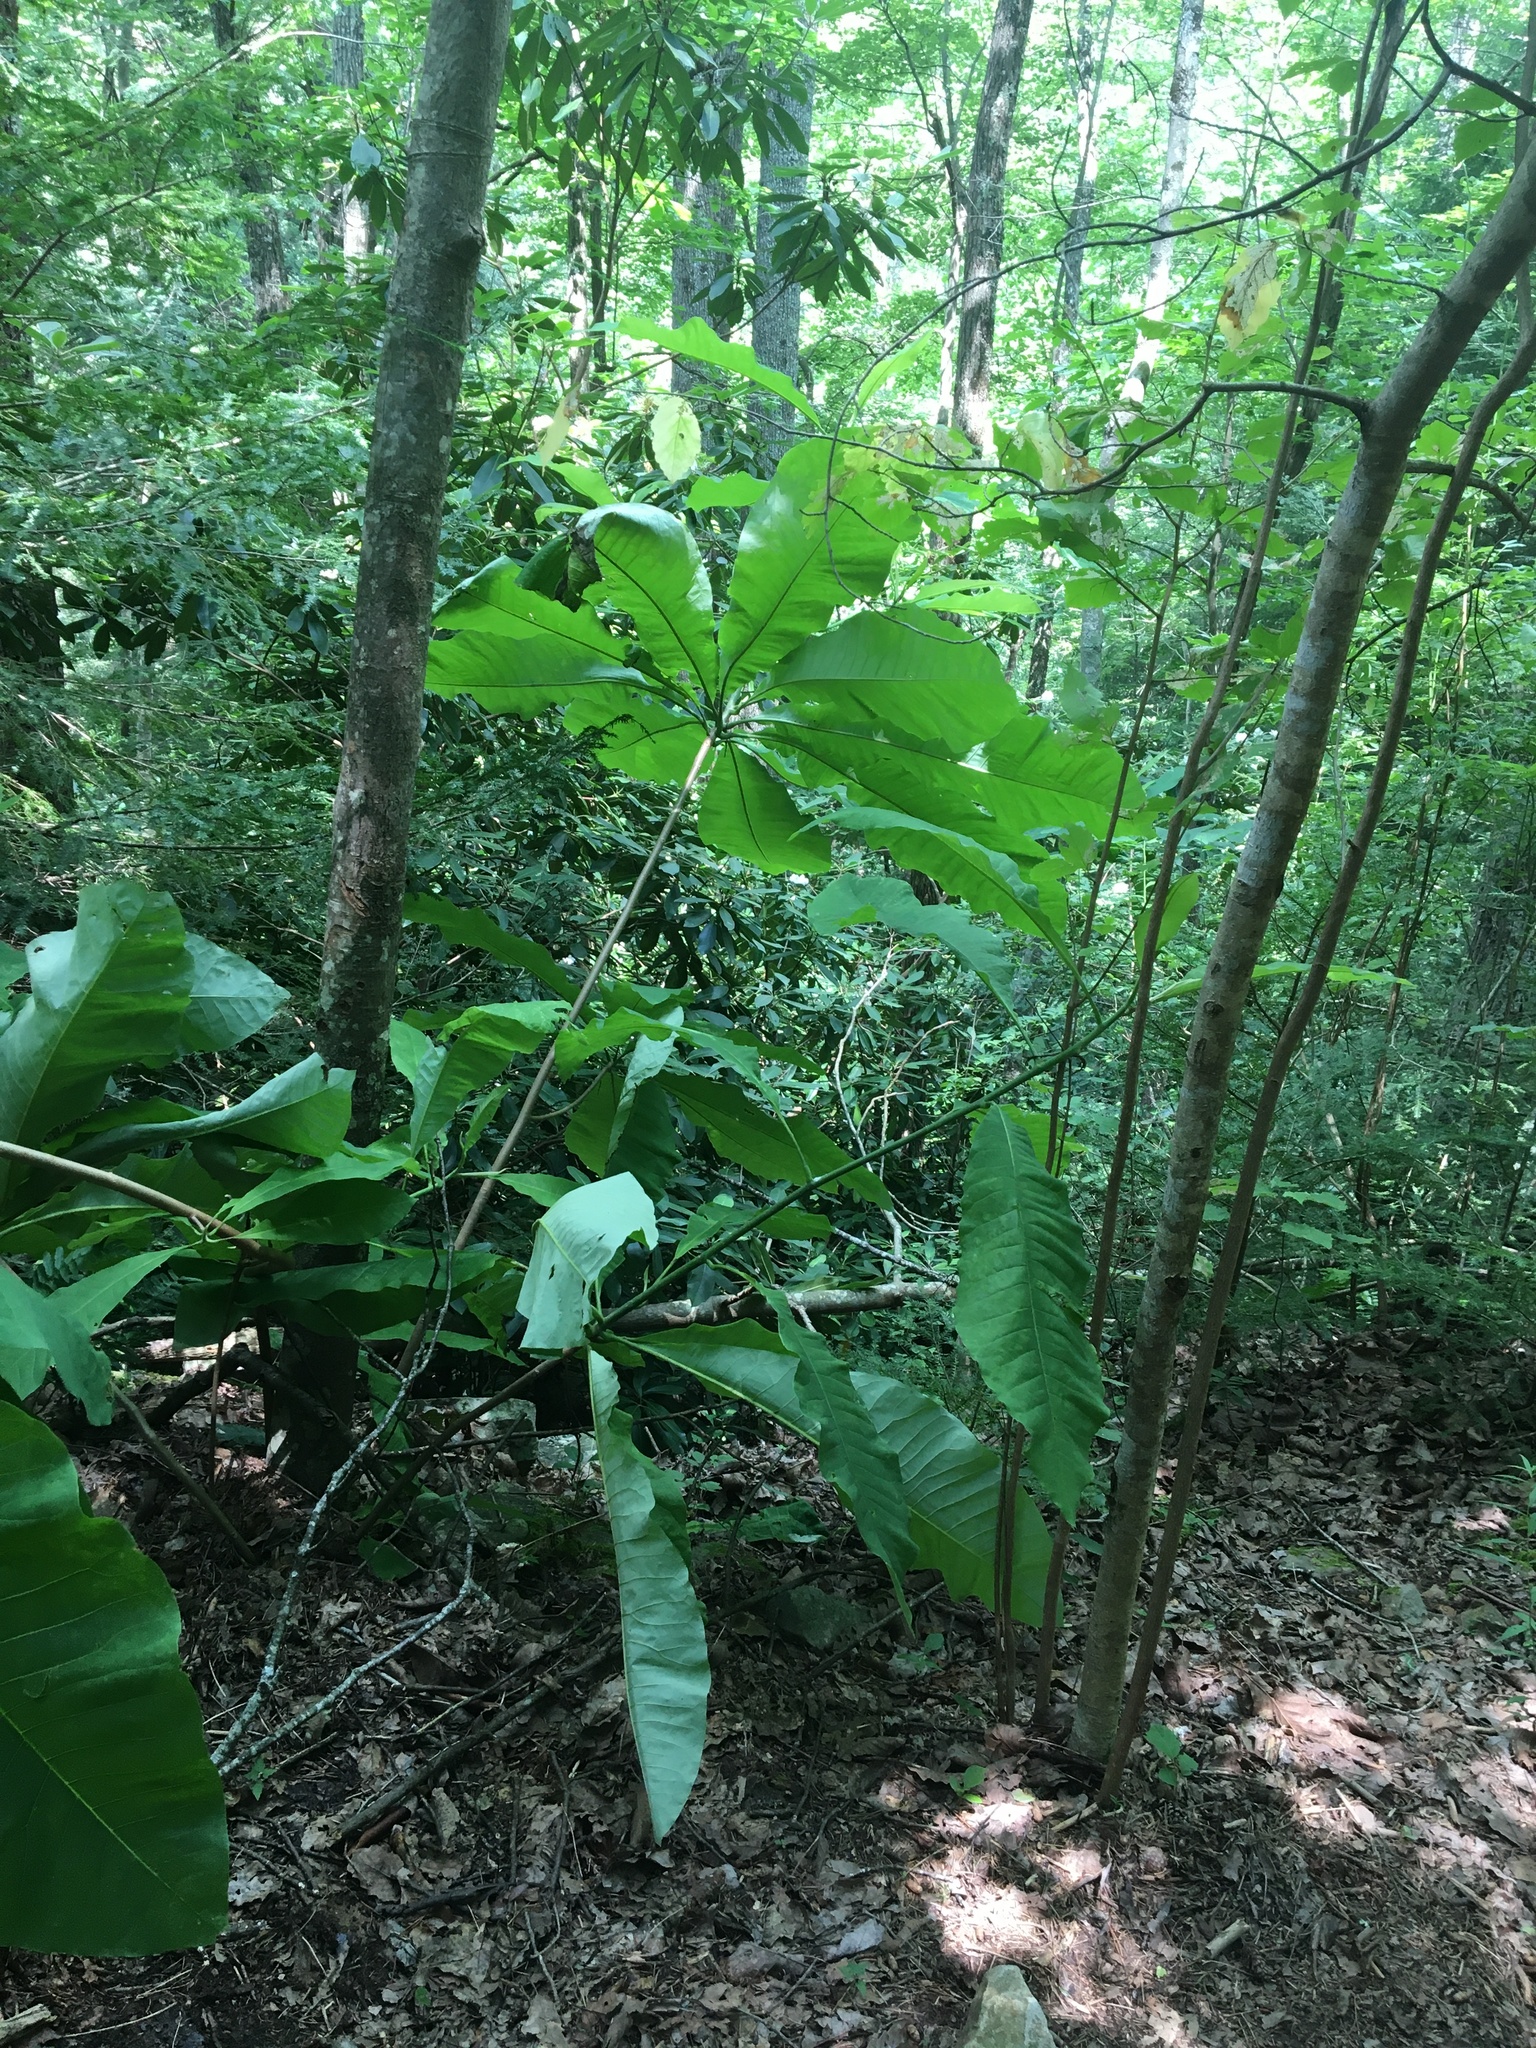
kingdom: Plantae
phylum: Tracheophyta
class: Magnoliopsida
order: Magnoliales
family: Magnoliaceae
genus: Magnolia
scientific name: Magnolia tripetala
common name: Umbrella magnolia
